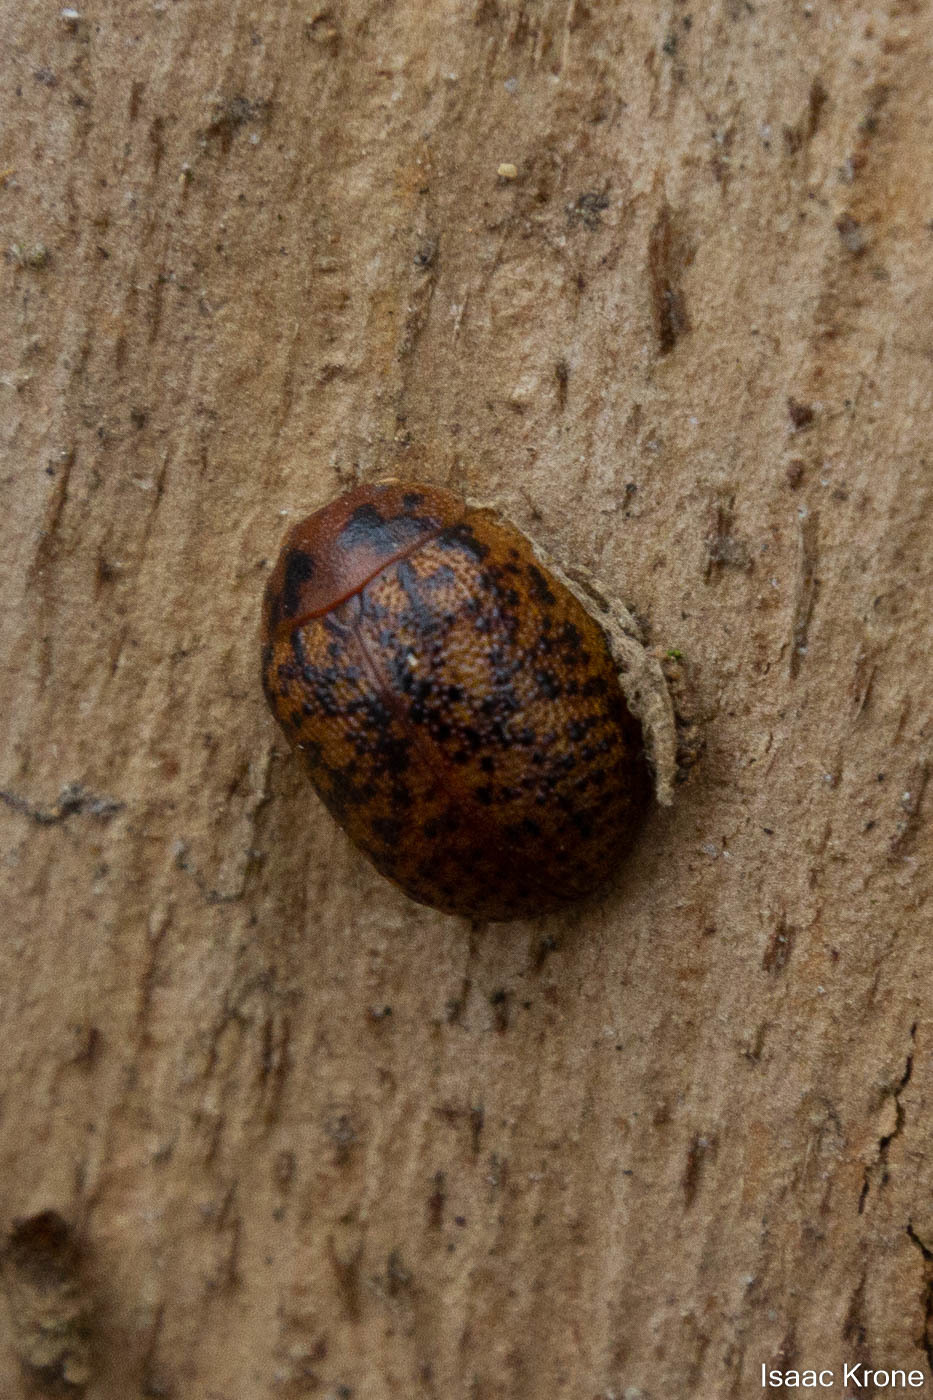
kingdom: Animalia
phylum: Arthropoda
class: Insecta
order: Coleoptera
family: Chrysomelidae
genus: Trachymela
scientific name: Trachymela sloanei
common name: Australian tortoise beetle
